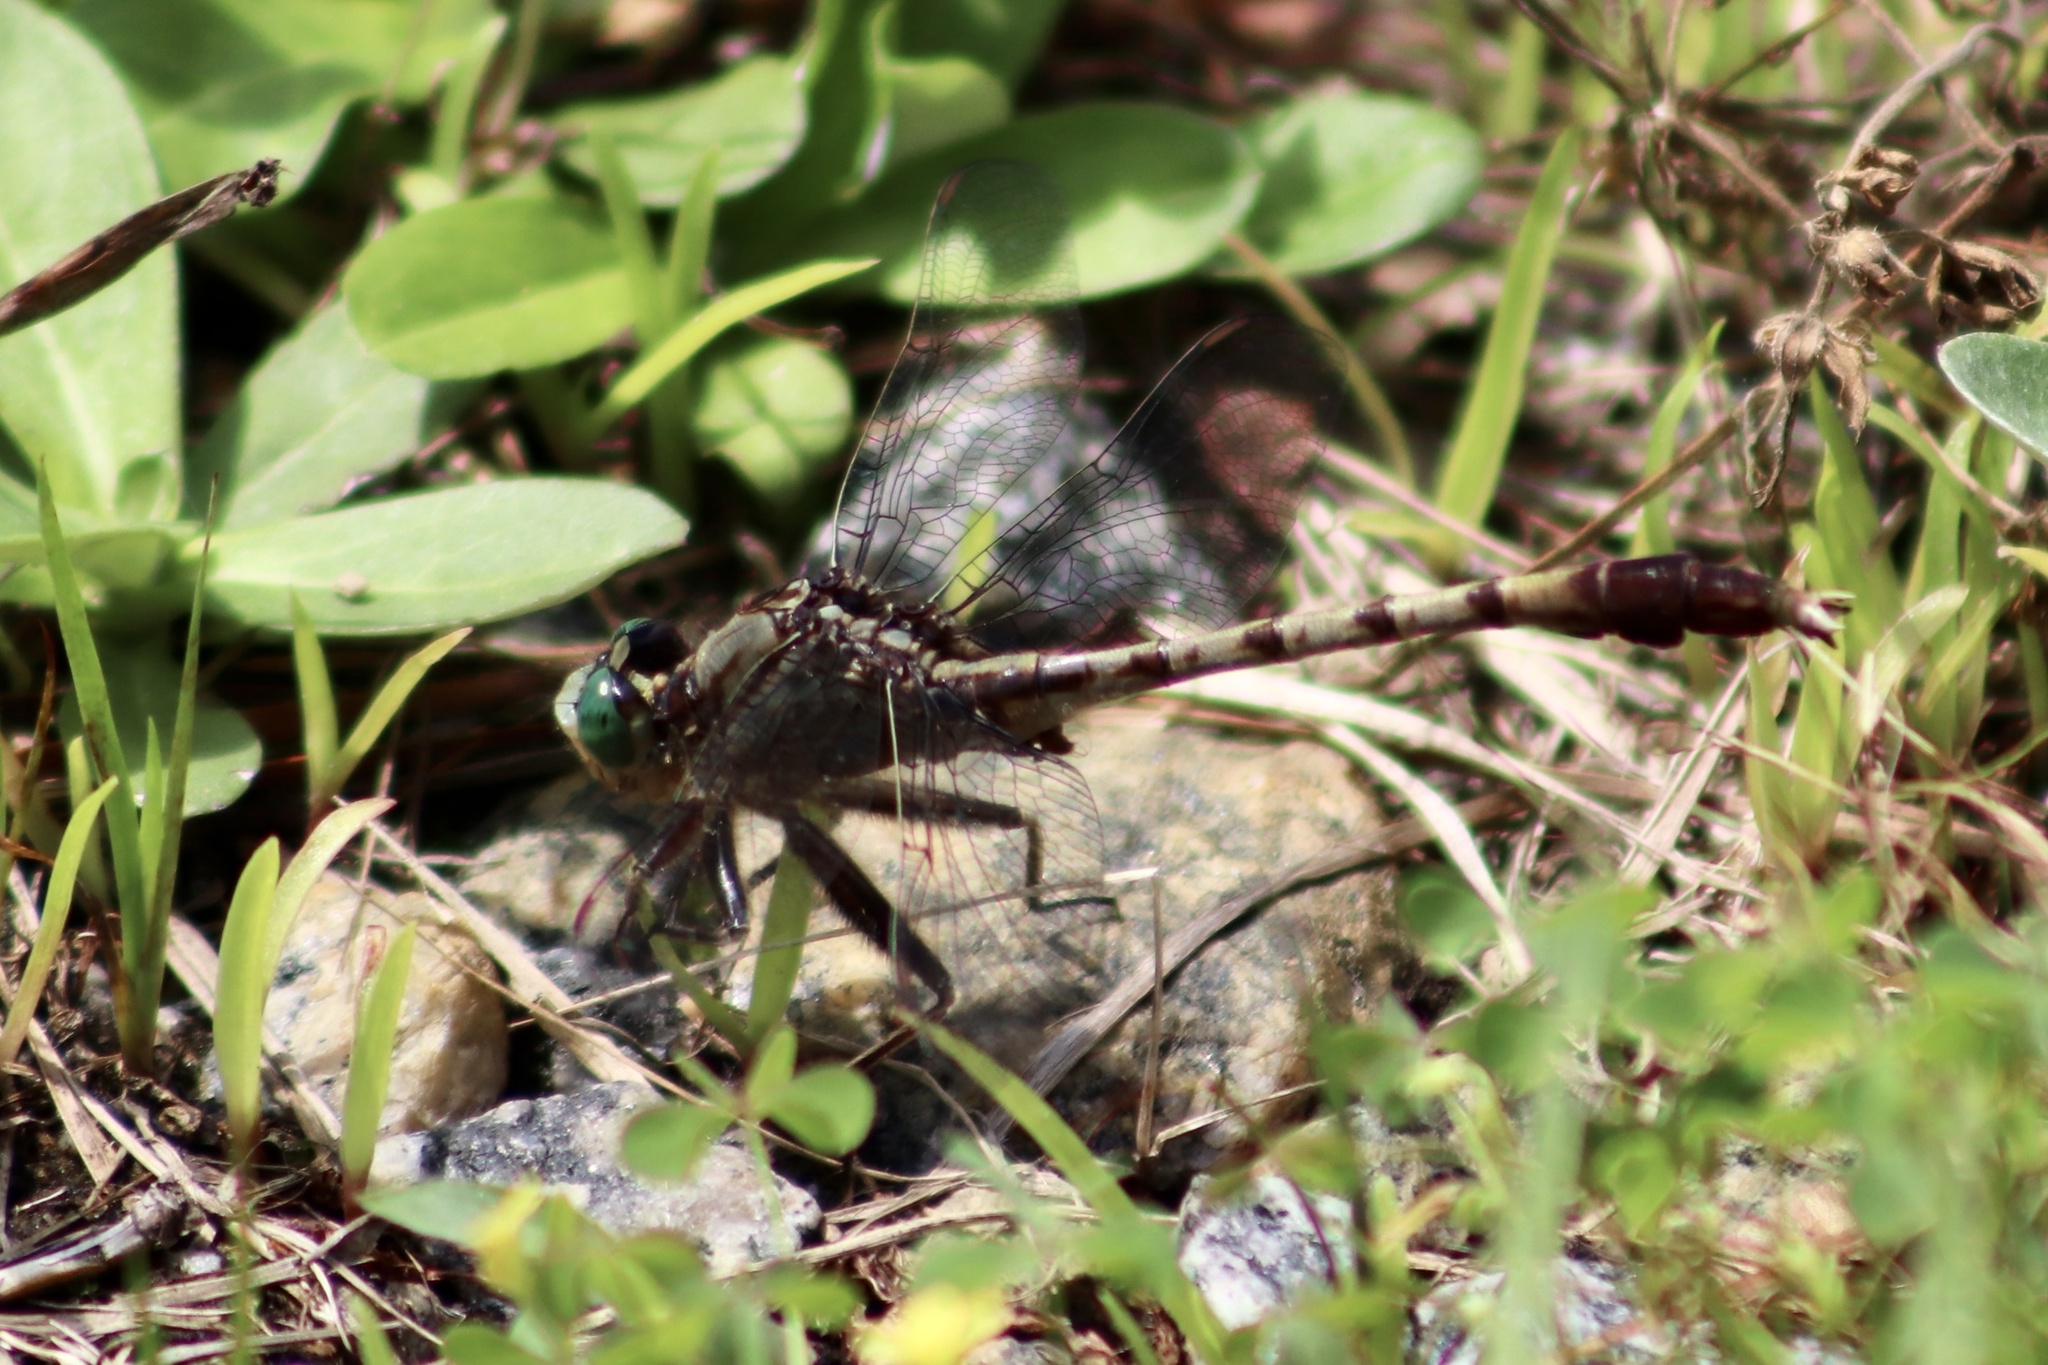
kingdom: Animalia
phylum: Arthropoda
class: Insecta
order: Odonata
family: Gomphidae
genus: Arigomphus
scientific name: Arigomphus pallidus
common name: Gray-green clubtail
